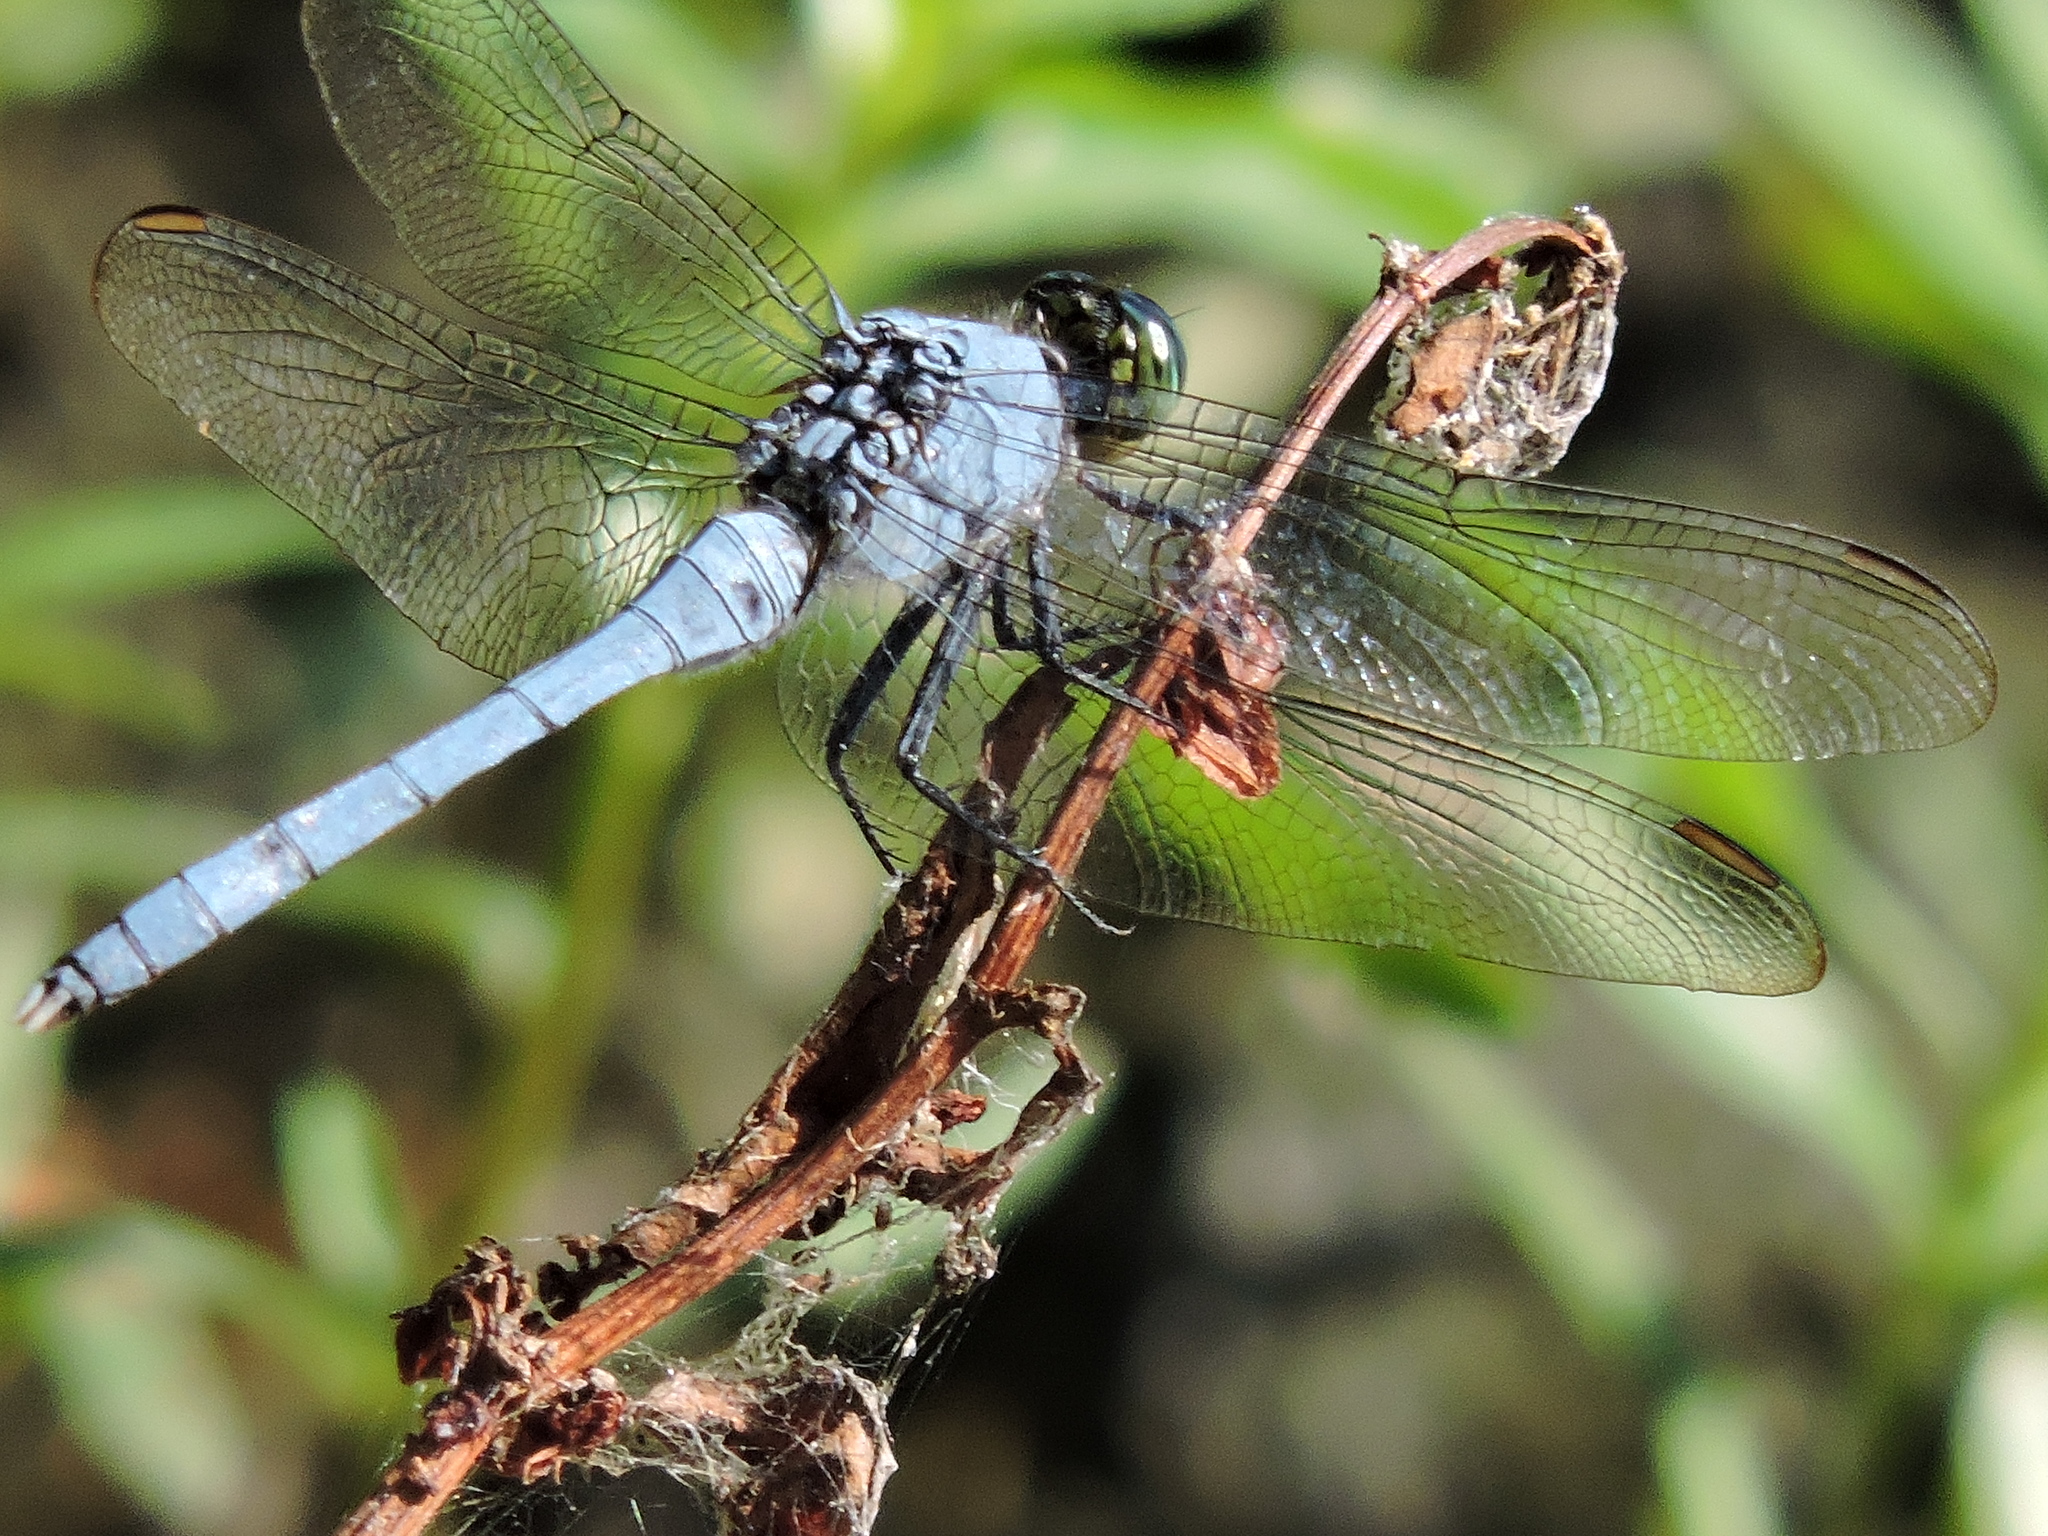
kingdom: Animalia
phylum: Arthropoda
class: Insecta
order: Odonata
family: Libellulidae
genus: Erythemis
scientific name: Erythemis simplicicollis
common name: Eastern pondhawk
